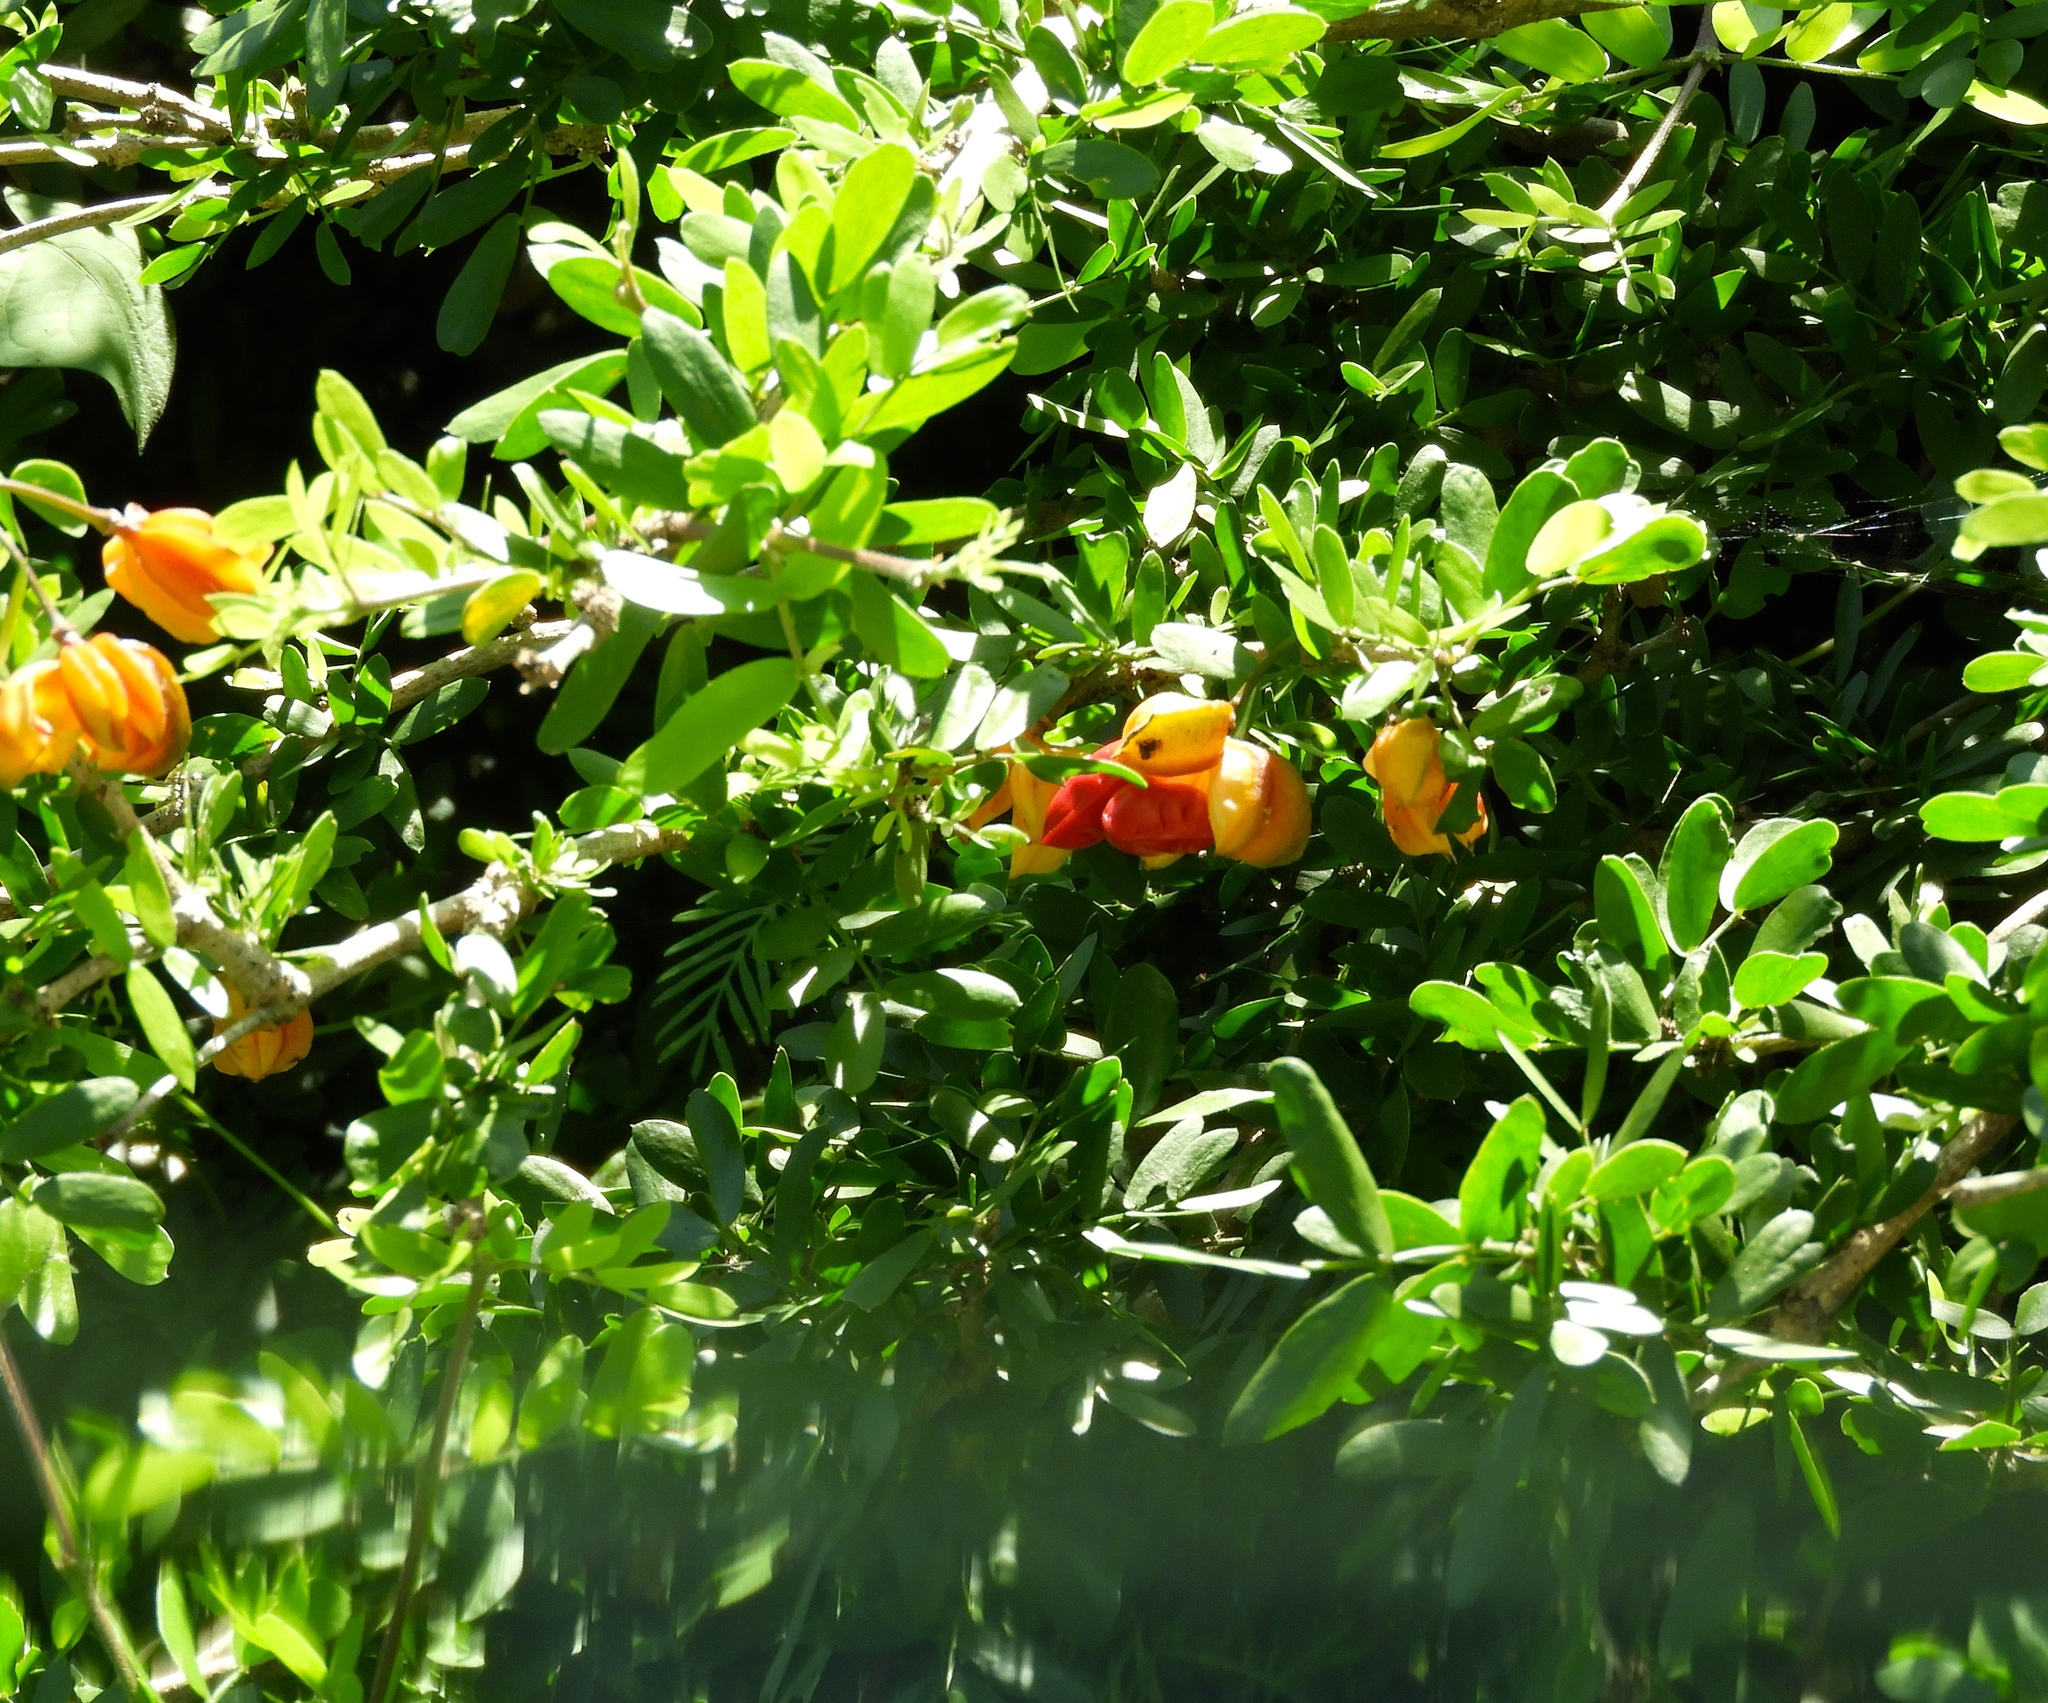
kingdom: Plantae
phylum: Tracheophyta
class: Magnoliopsida
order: Zygophyllales
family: Zygophyllaceae
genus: Guaiacum
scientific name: Guaiacum coulteri
